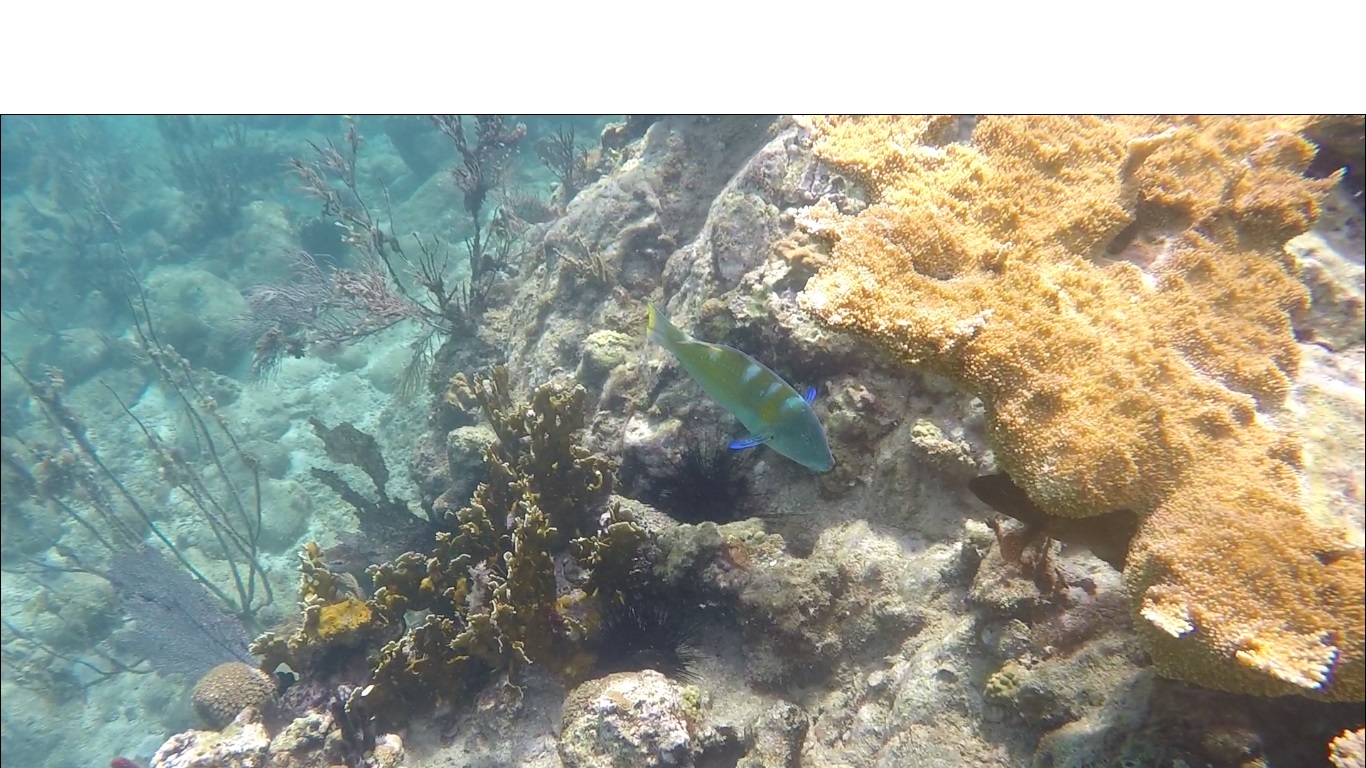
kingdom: Animalia
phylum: Chordata
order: Perciformes
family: Labridae
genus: Halichoeres
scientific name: Halichoeres radiatus
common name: Puddingwife
